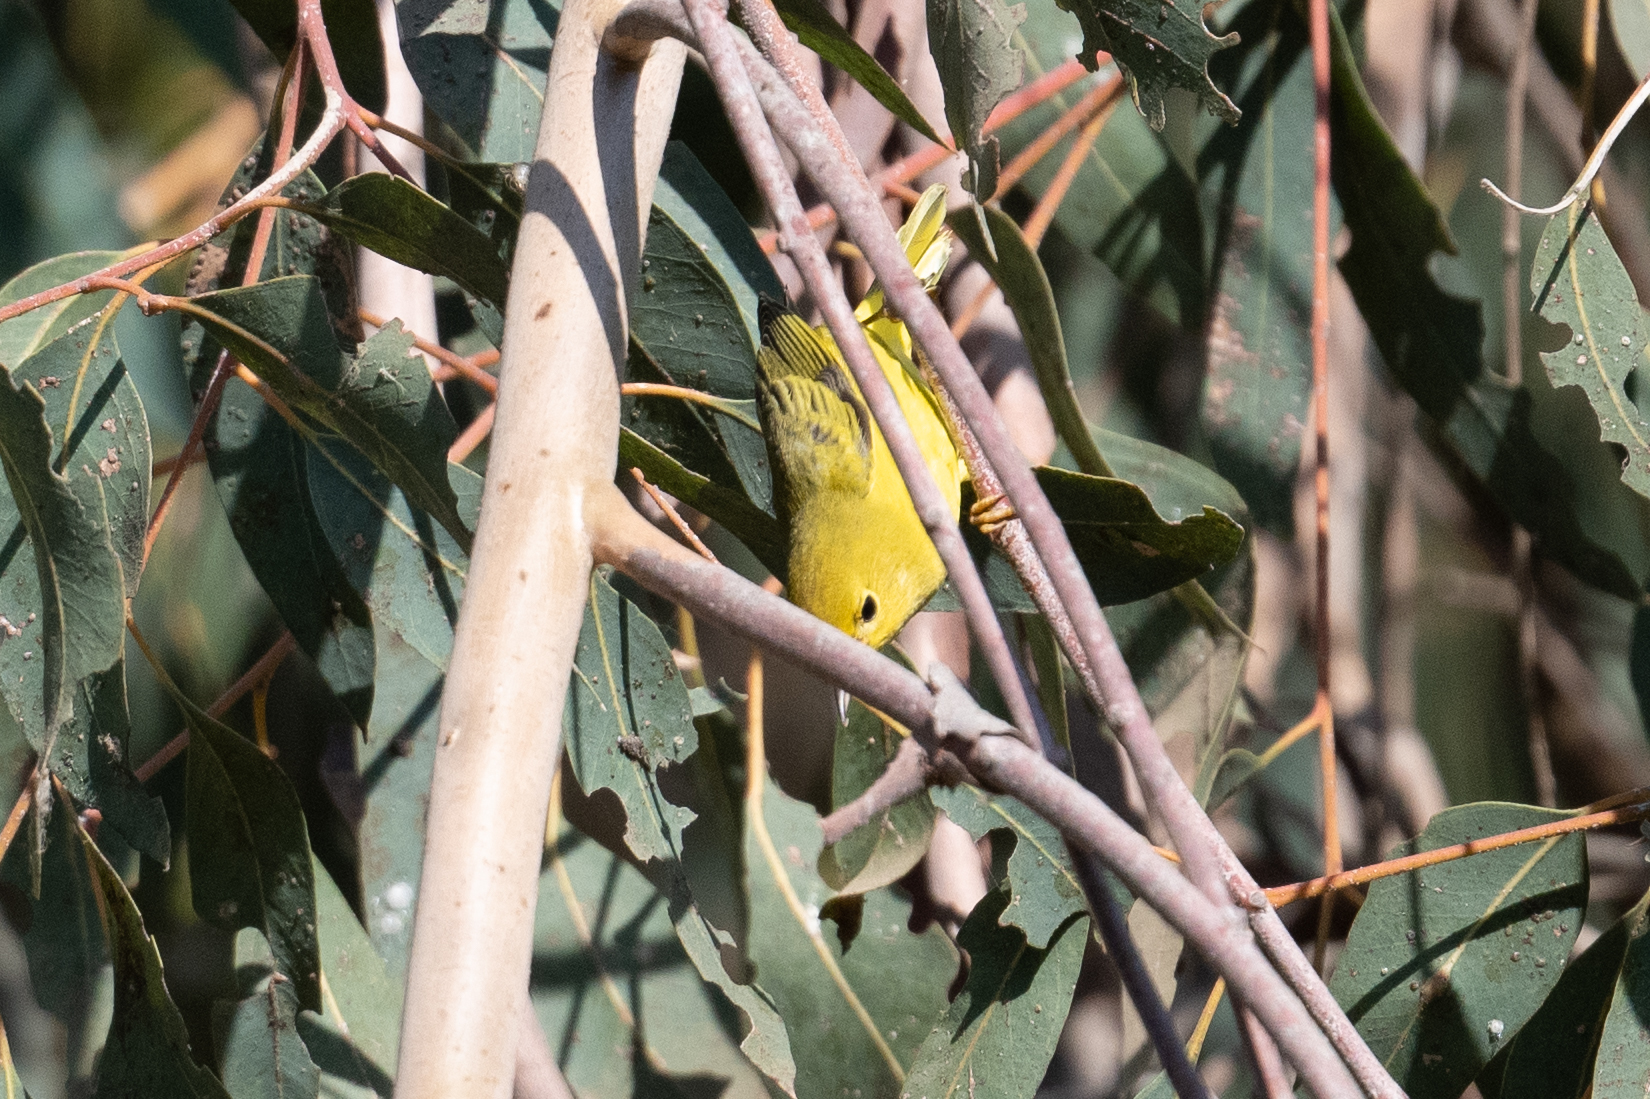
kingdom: Animalia
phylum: Chordata
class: Aves
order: Passeriformes
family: Parulidae
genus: Setophaga
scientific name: Setophaga petechia
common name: Yellow warbler
